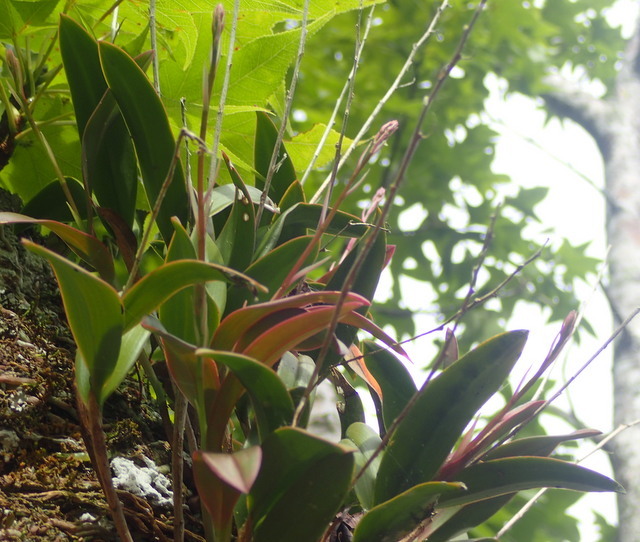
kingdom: Plantae
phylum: Tracheophyta
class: Liliopsida
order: Asparagales
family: Orchidaceae
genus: Epidendrum
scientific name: Epidendrum conopseum
